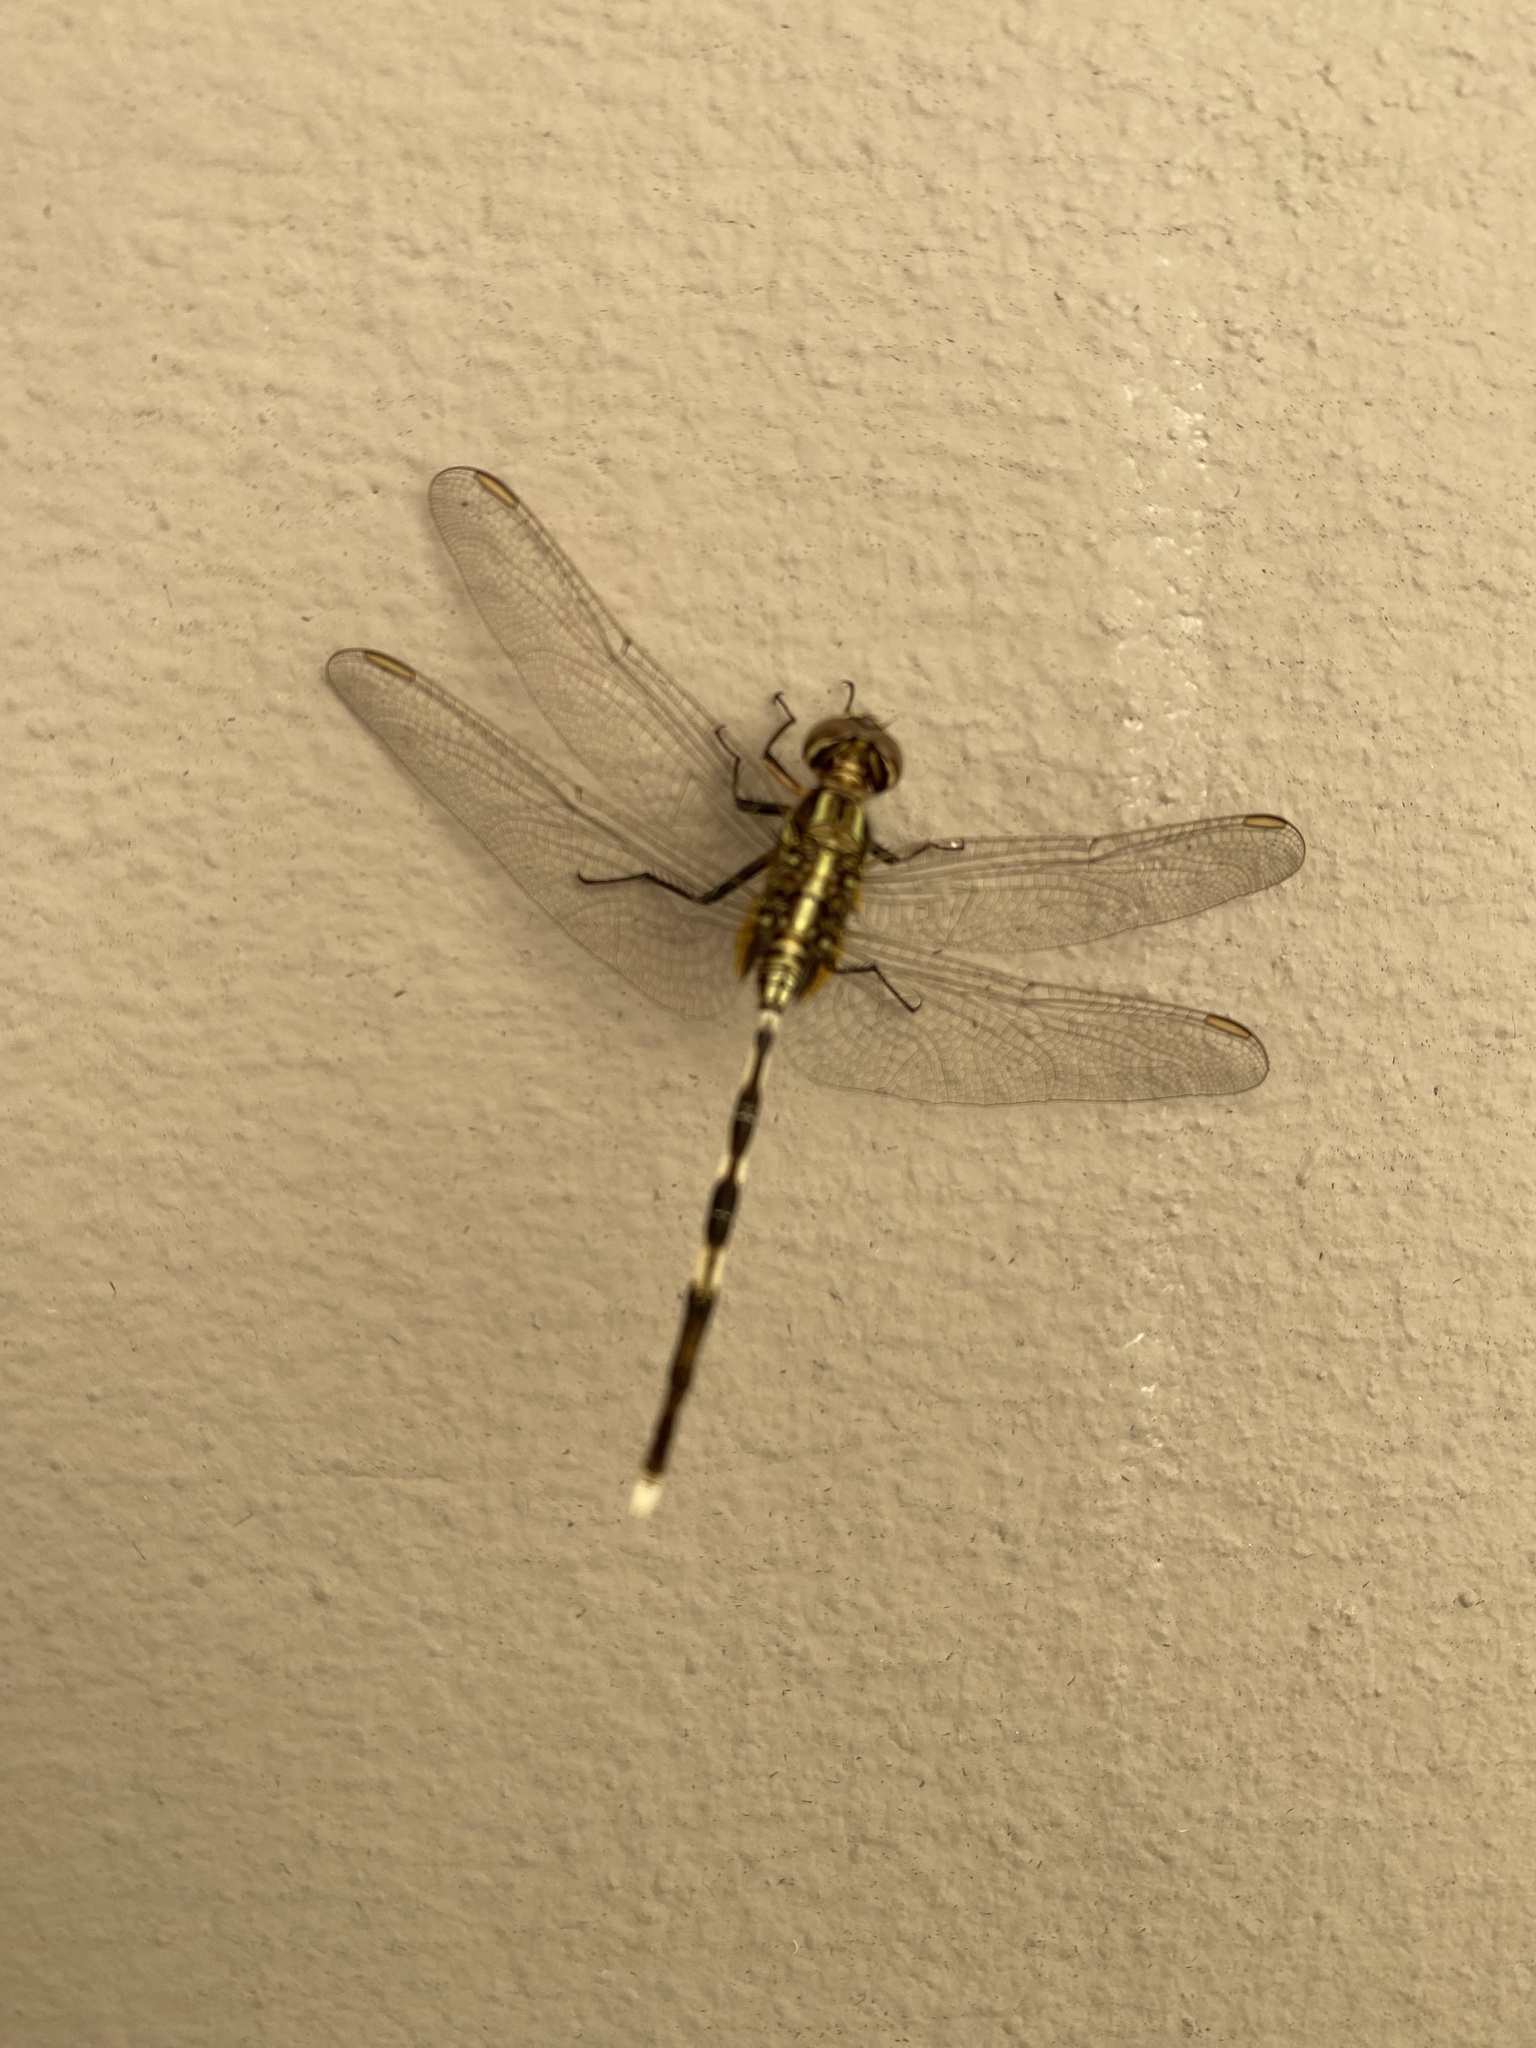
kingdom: Animalia
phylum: Arthropoda
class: Insecta
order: Odonata
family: Libellulidae
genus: Orthetrum
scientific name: Orthetrum sabina
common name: Slender skimmer
